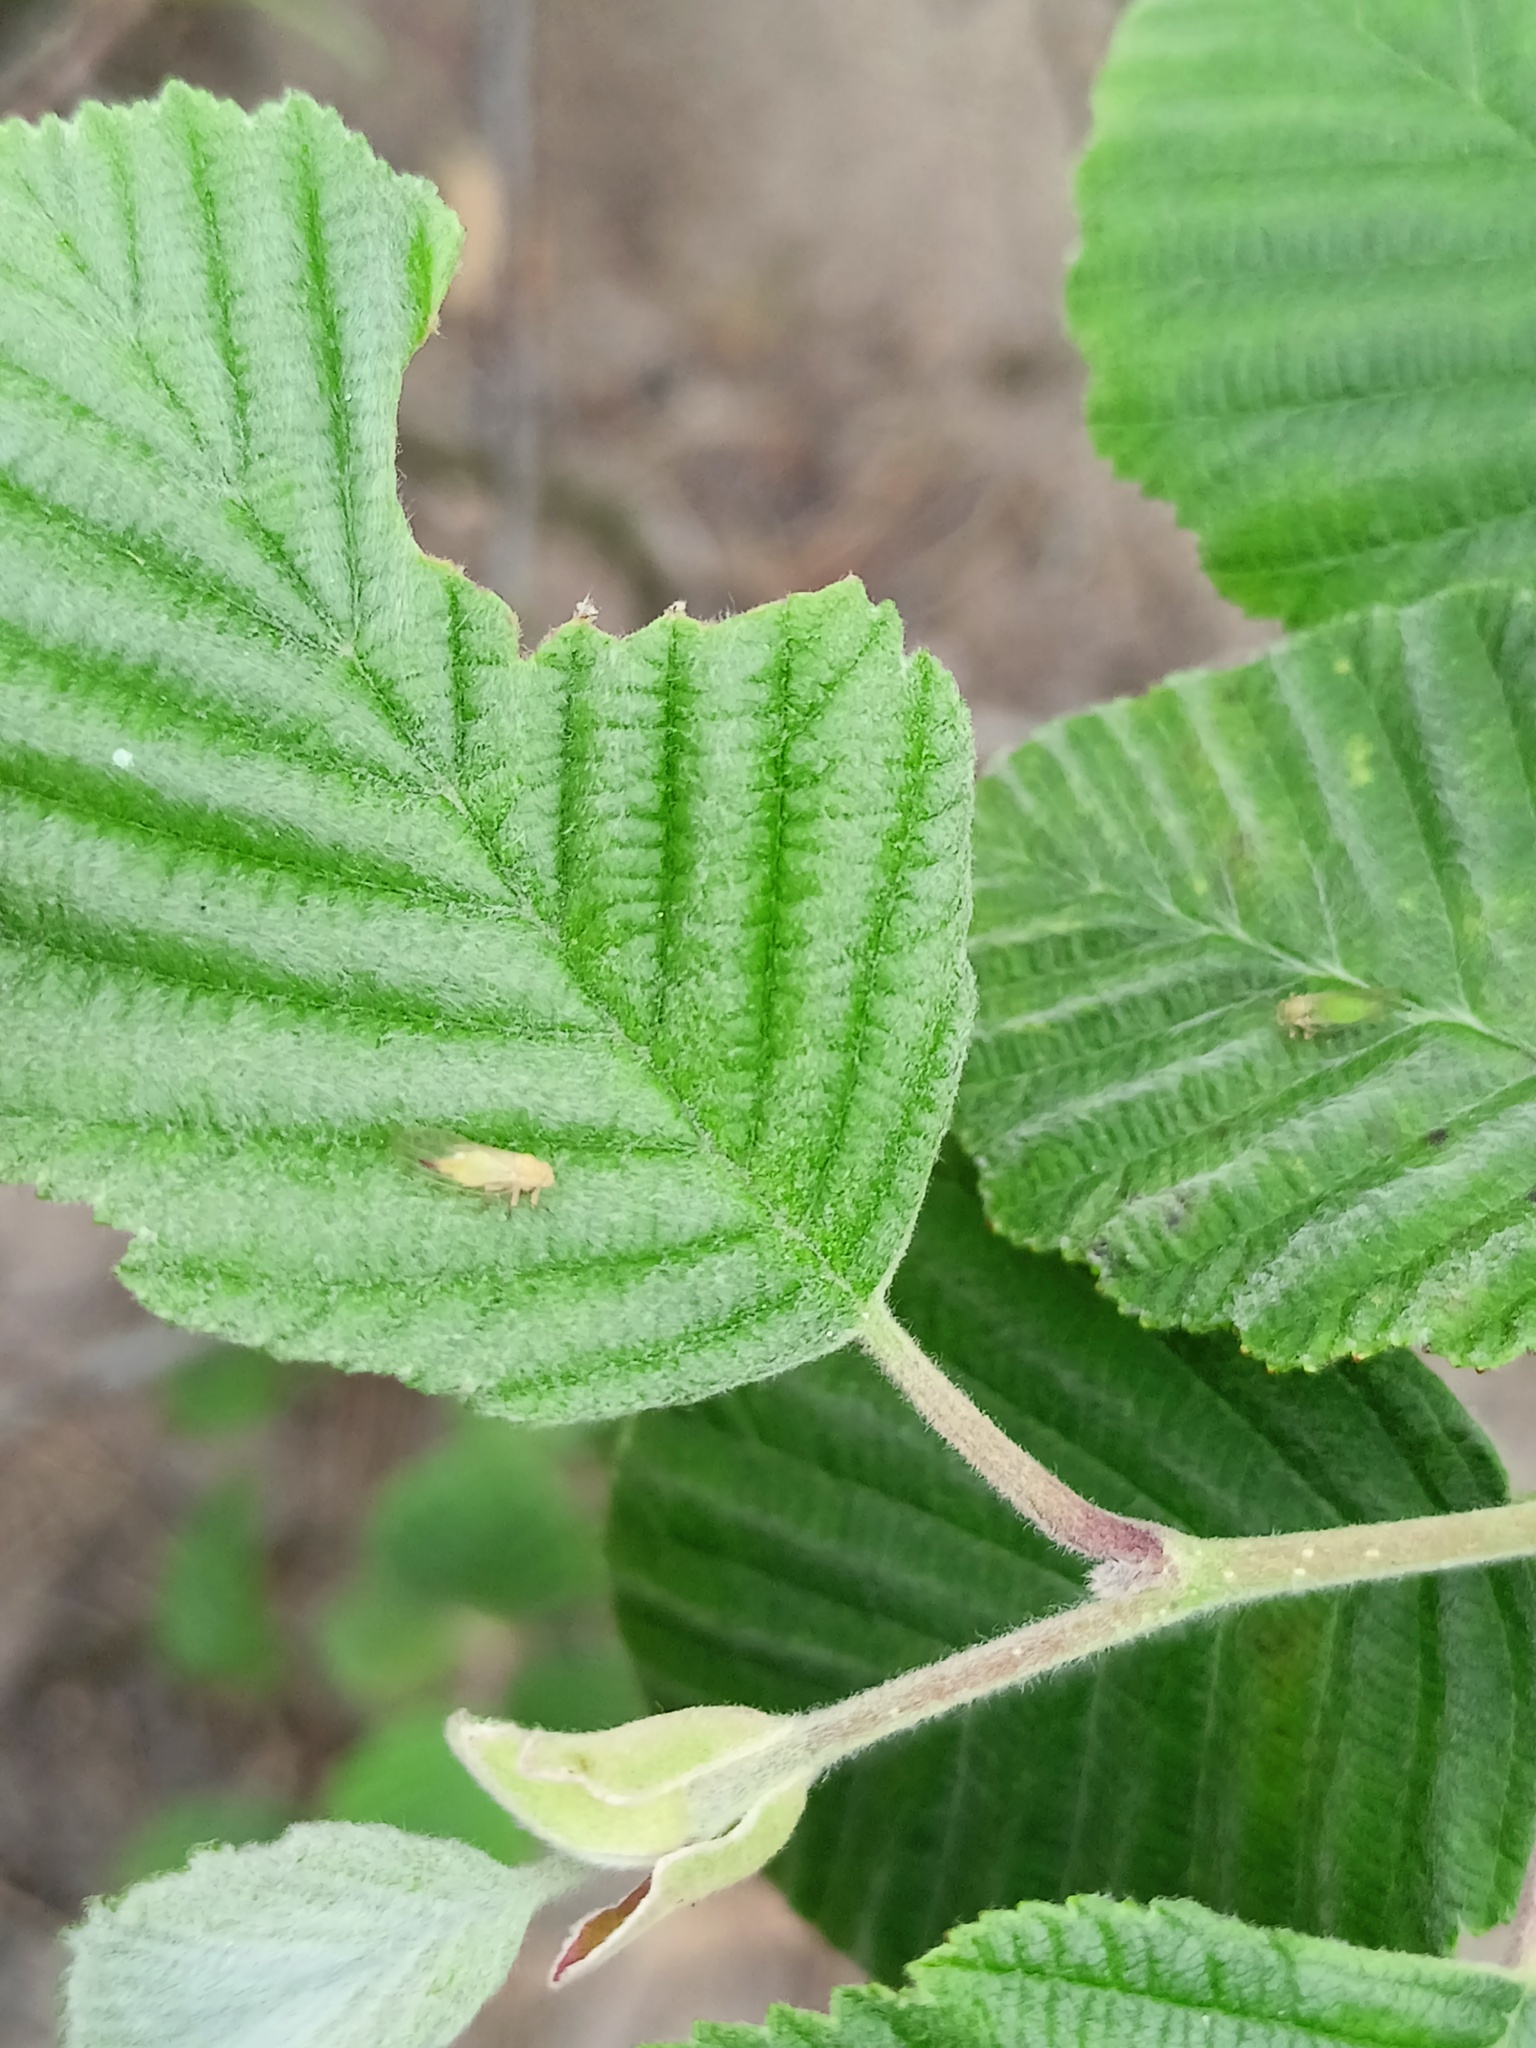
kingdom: Plantae
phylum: Tracheophyta
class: Magnoliopsida
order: Fagales
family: Betulaceae
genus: Alnus
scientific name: Alnus incana
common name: Grey alder
